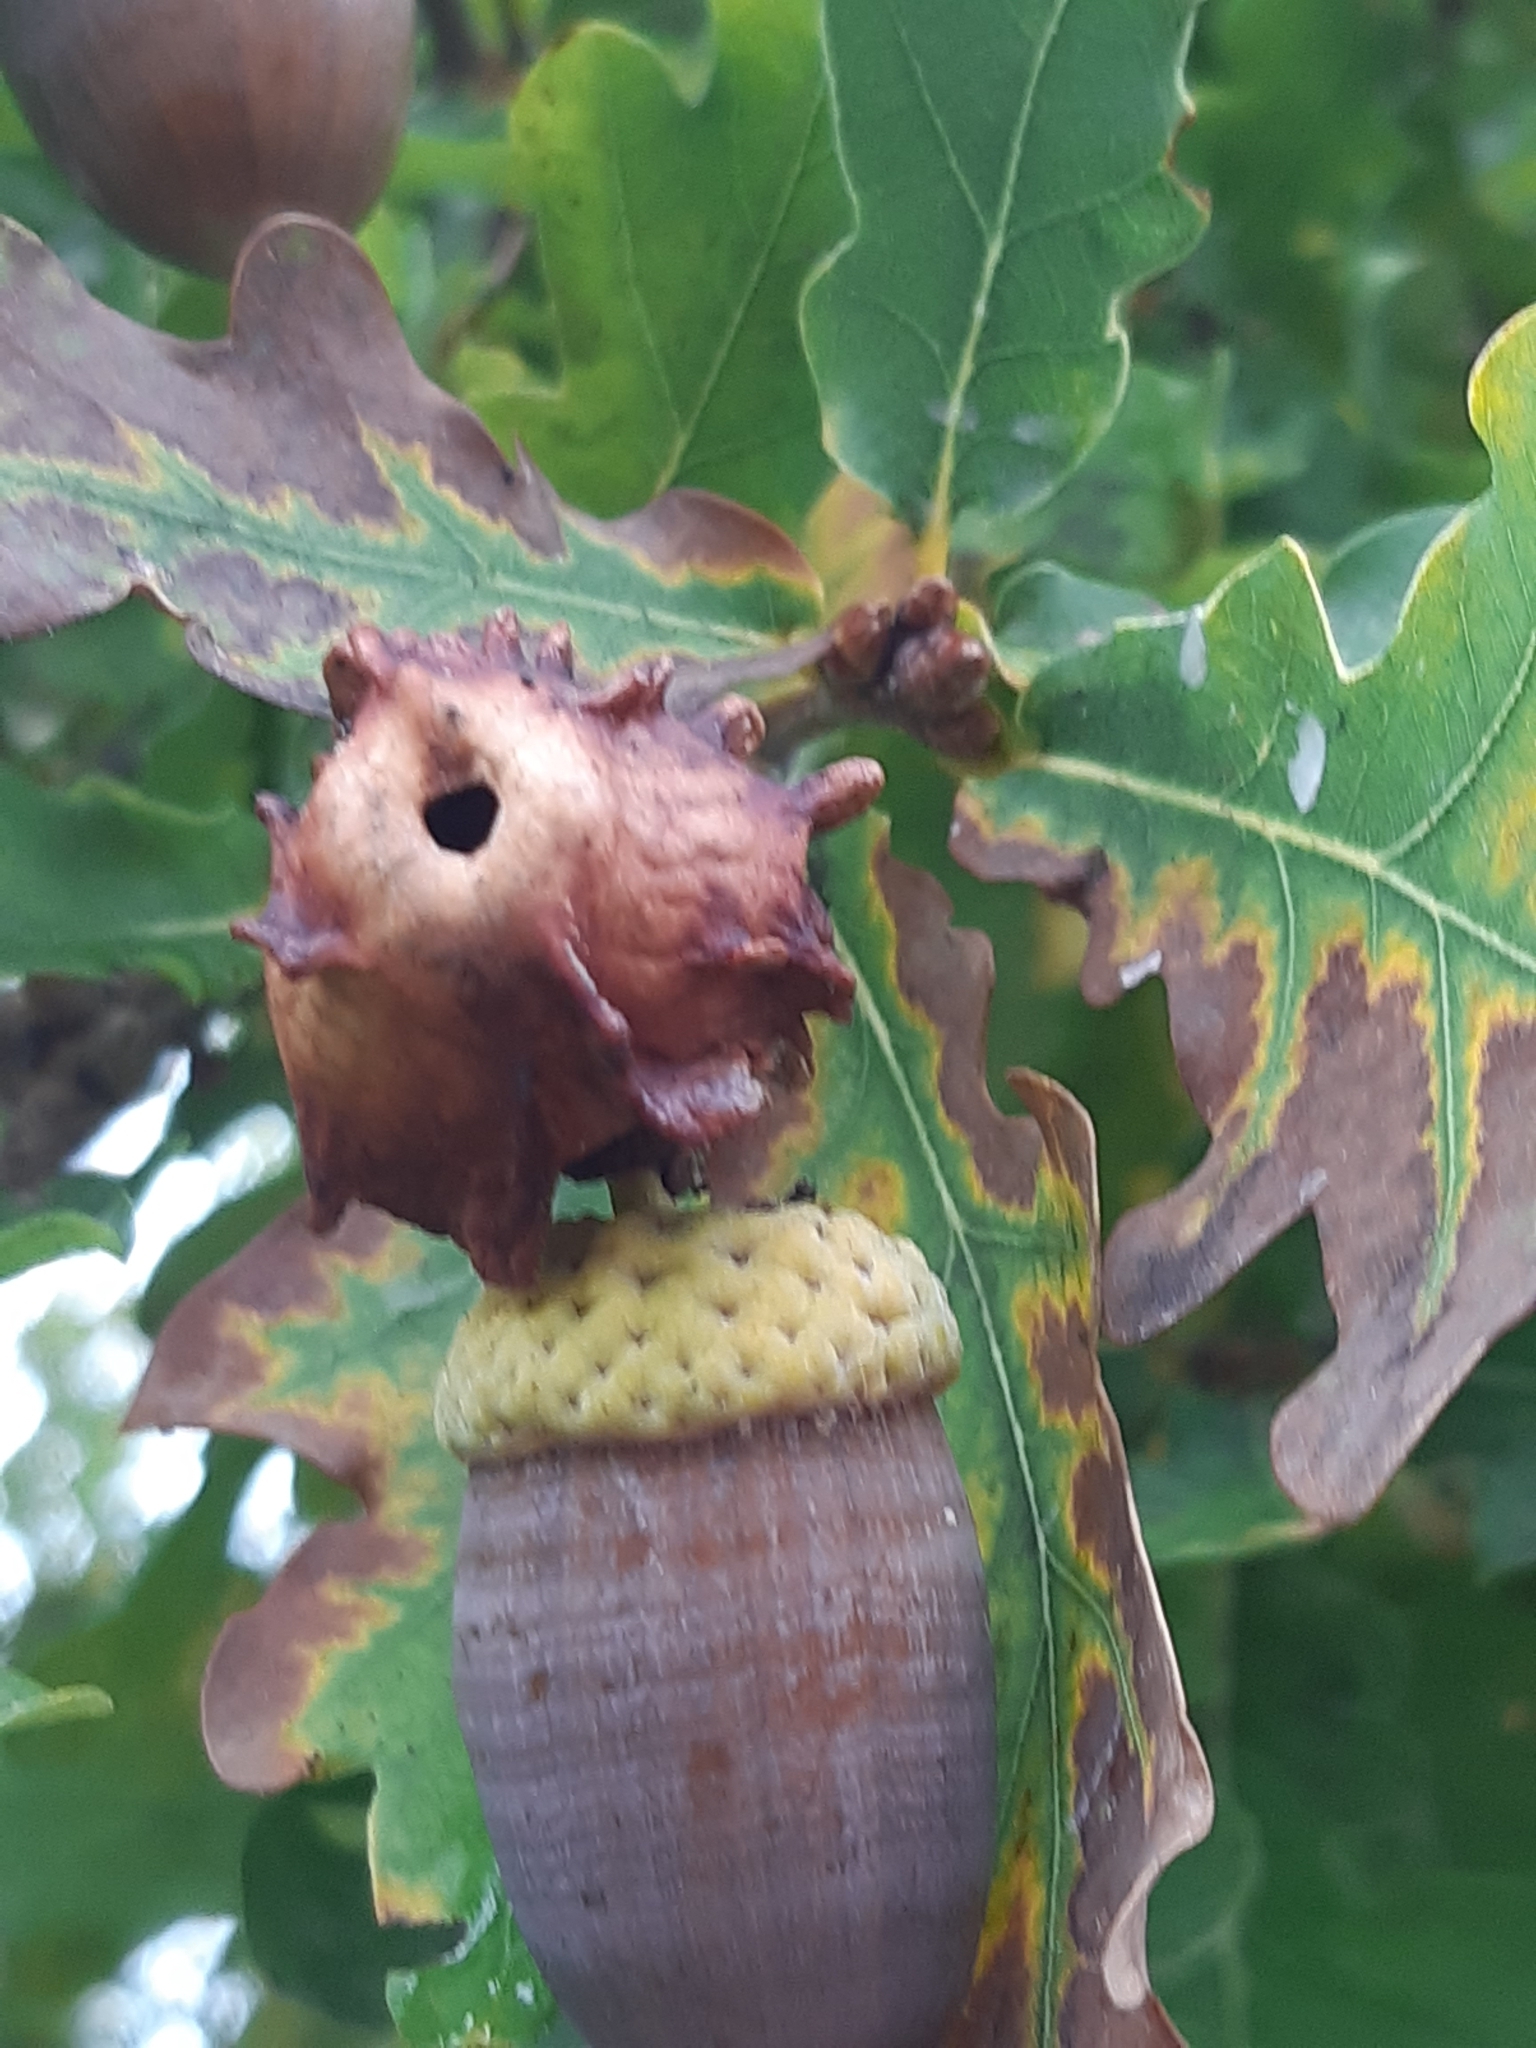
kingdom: Animalia
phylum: Arthropoda
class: Insecta
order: Hymenoptera
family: Cynipidae
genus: Andricus
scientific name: Andricus quercuscalicis
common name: Knopper gall
